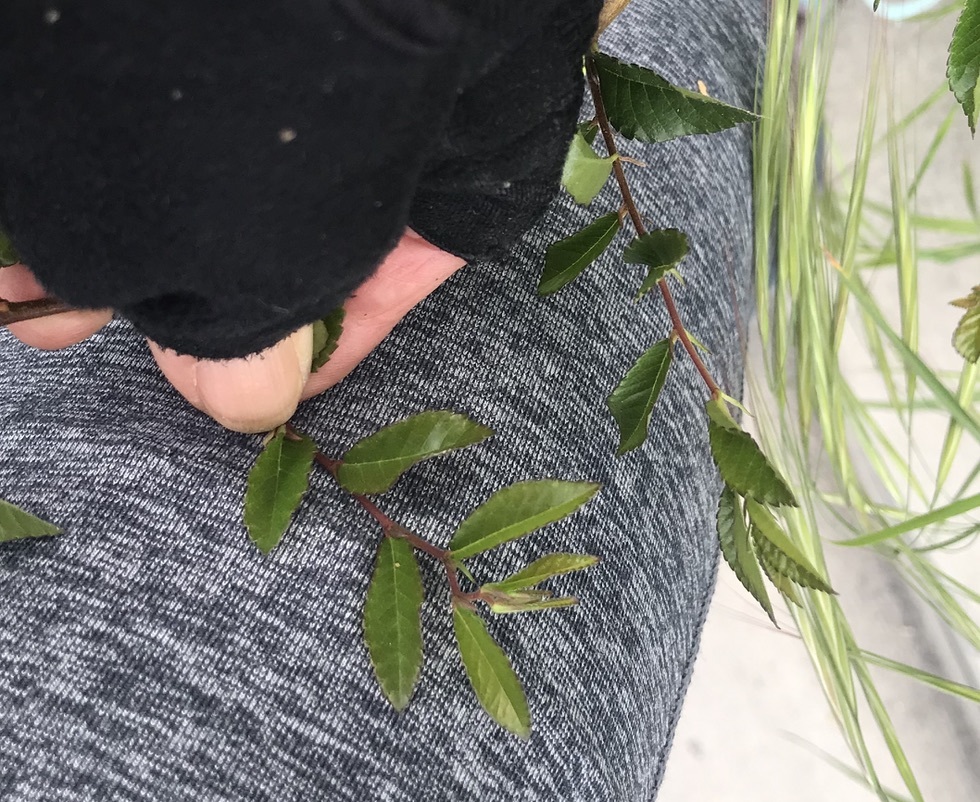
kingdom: Plantae
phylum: Tracheophyta
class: Magnoliopsida
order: Rosales
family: Ulmaceae
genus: Ulmus
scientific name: Ulmus davidiana
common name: Japanese elm
